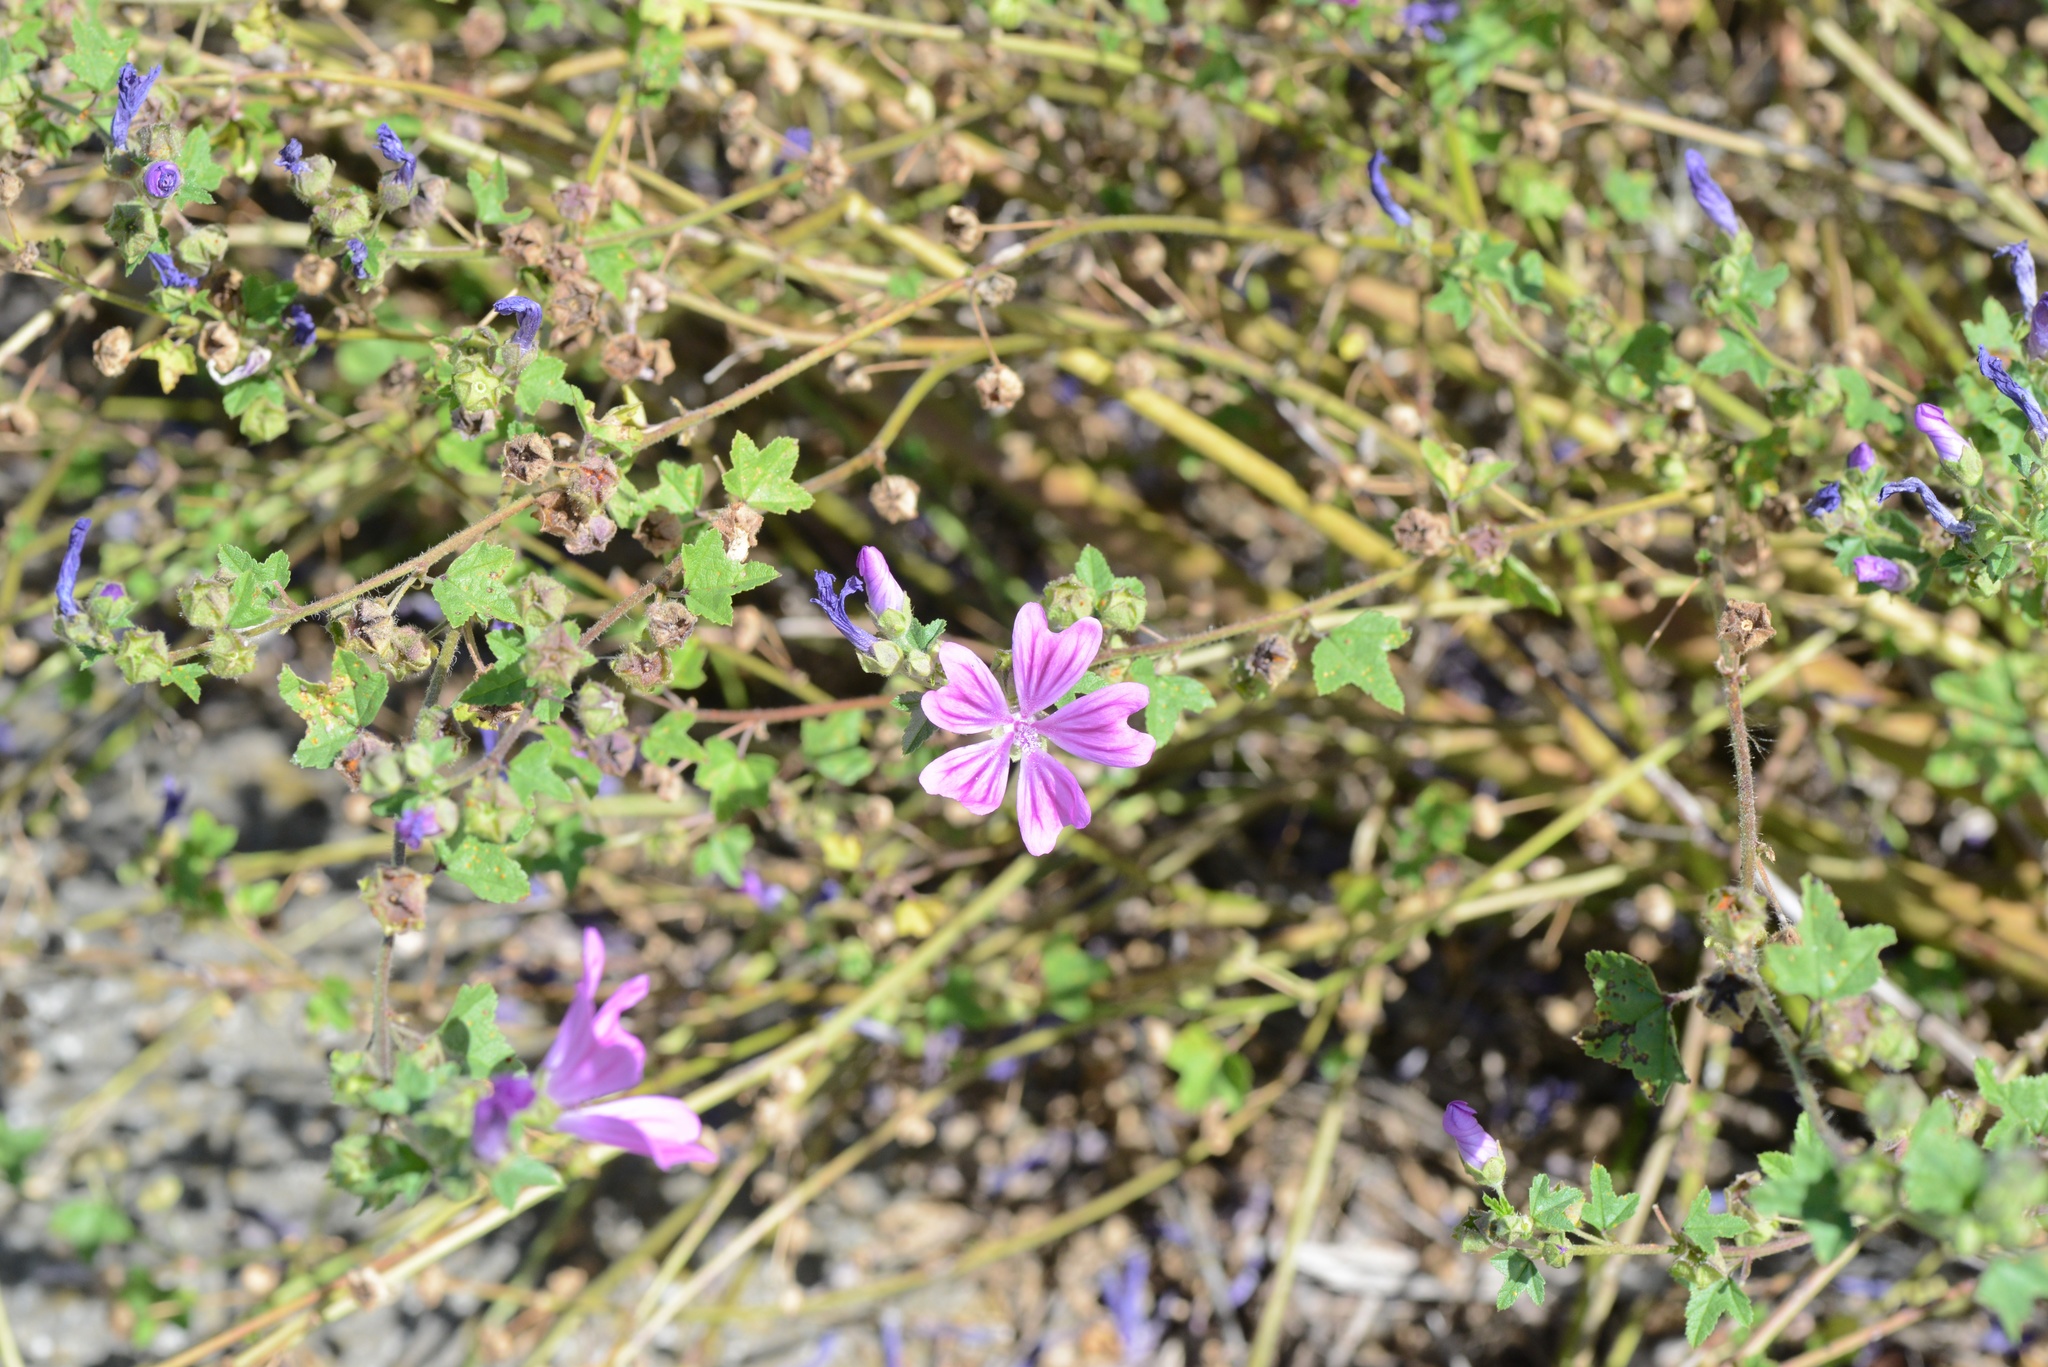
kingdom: Plantae
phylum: Tracheophyta
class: Magnoliopsida
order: Malvales
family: Malvaceae
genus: Malva
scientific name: Malva sylvestris
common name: Common mallow
